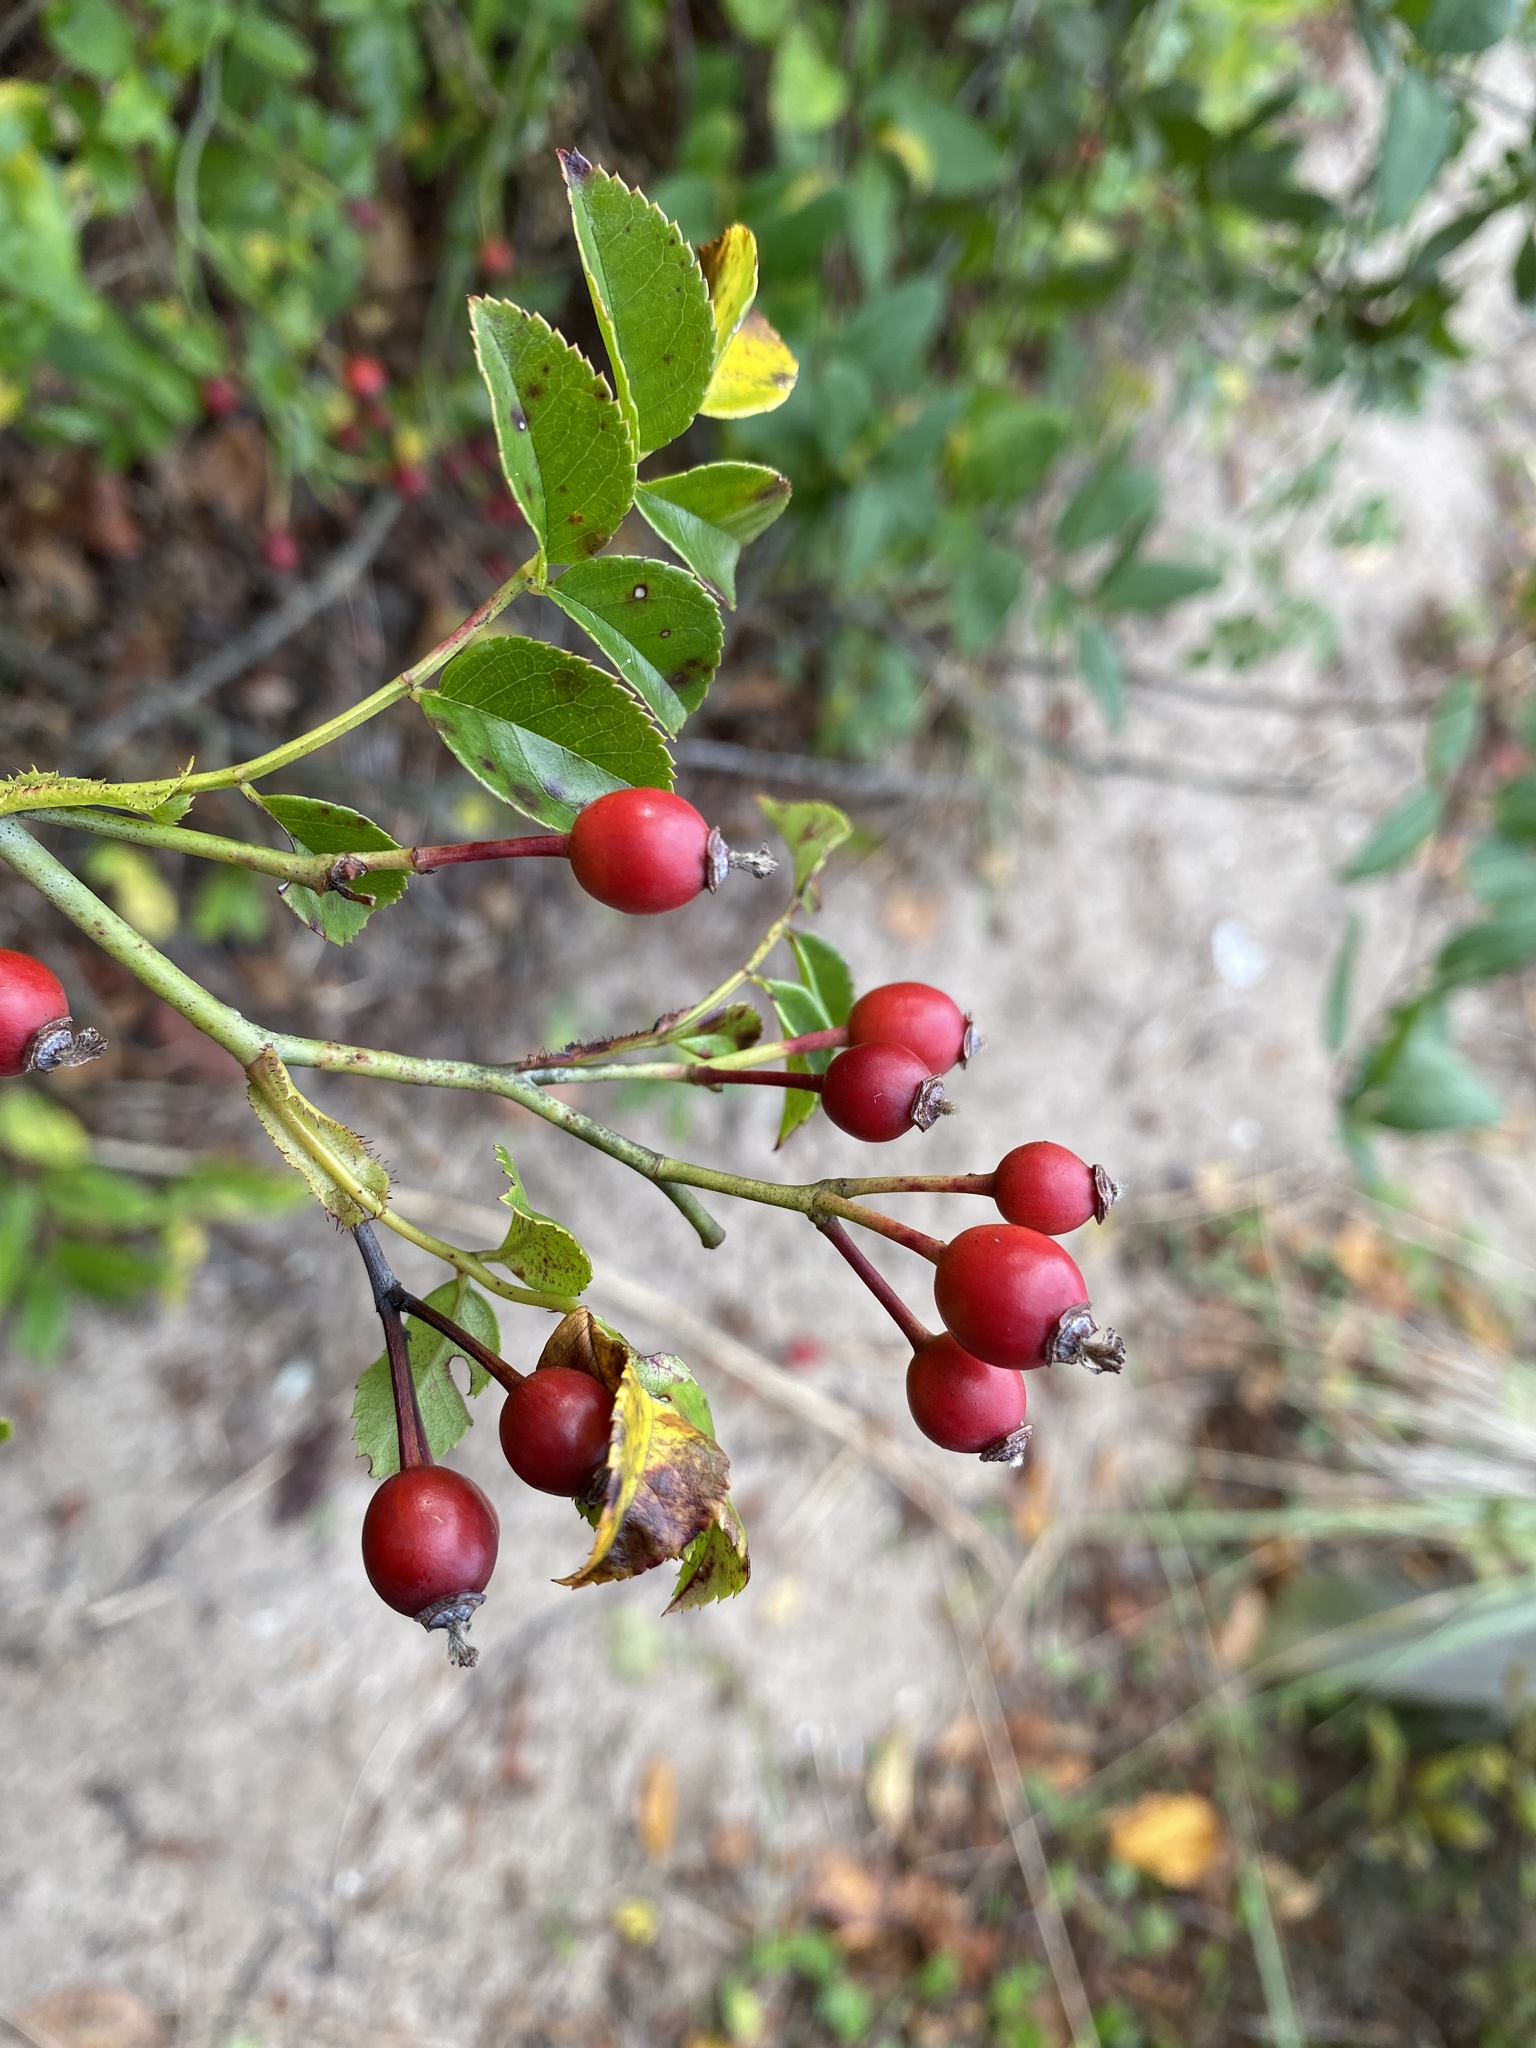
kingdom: Plantae
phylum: Tracheophyta
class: Magnoliopsida
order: Rosales
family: Rosaceae
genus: Rosa
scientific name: Rosa lucieae
